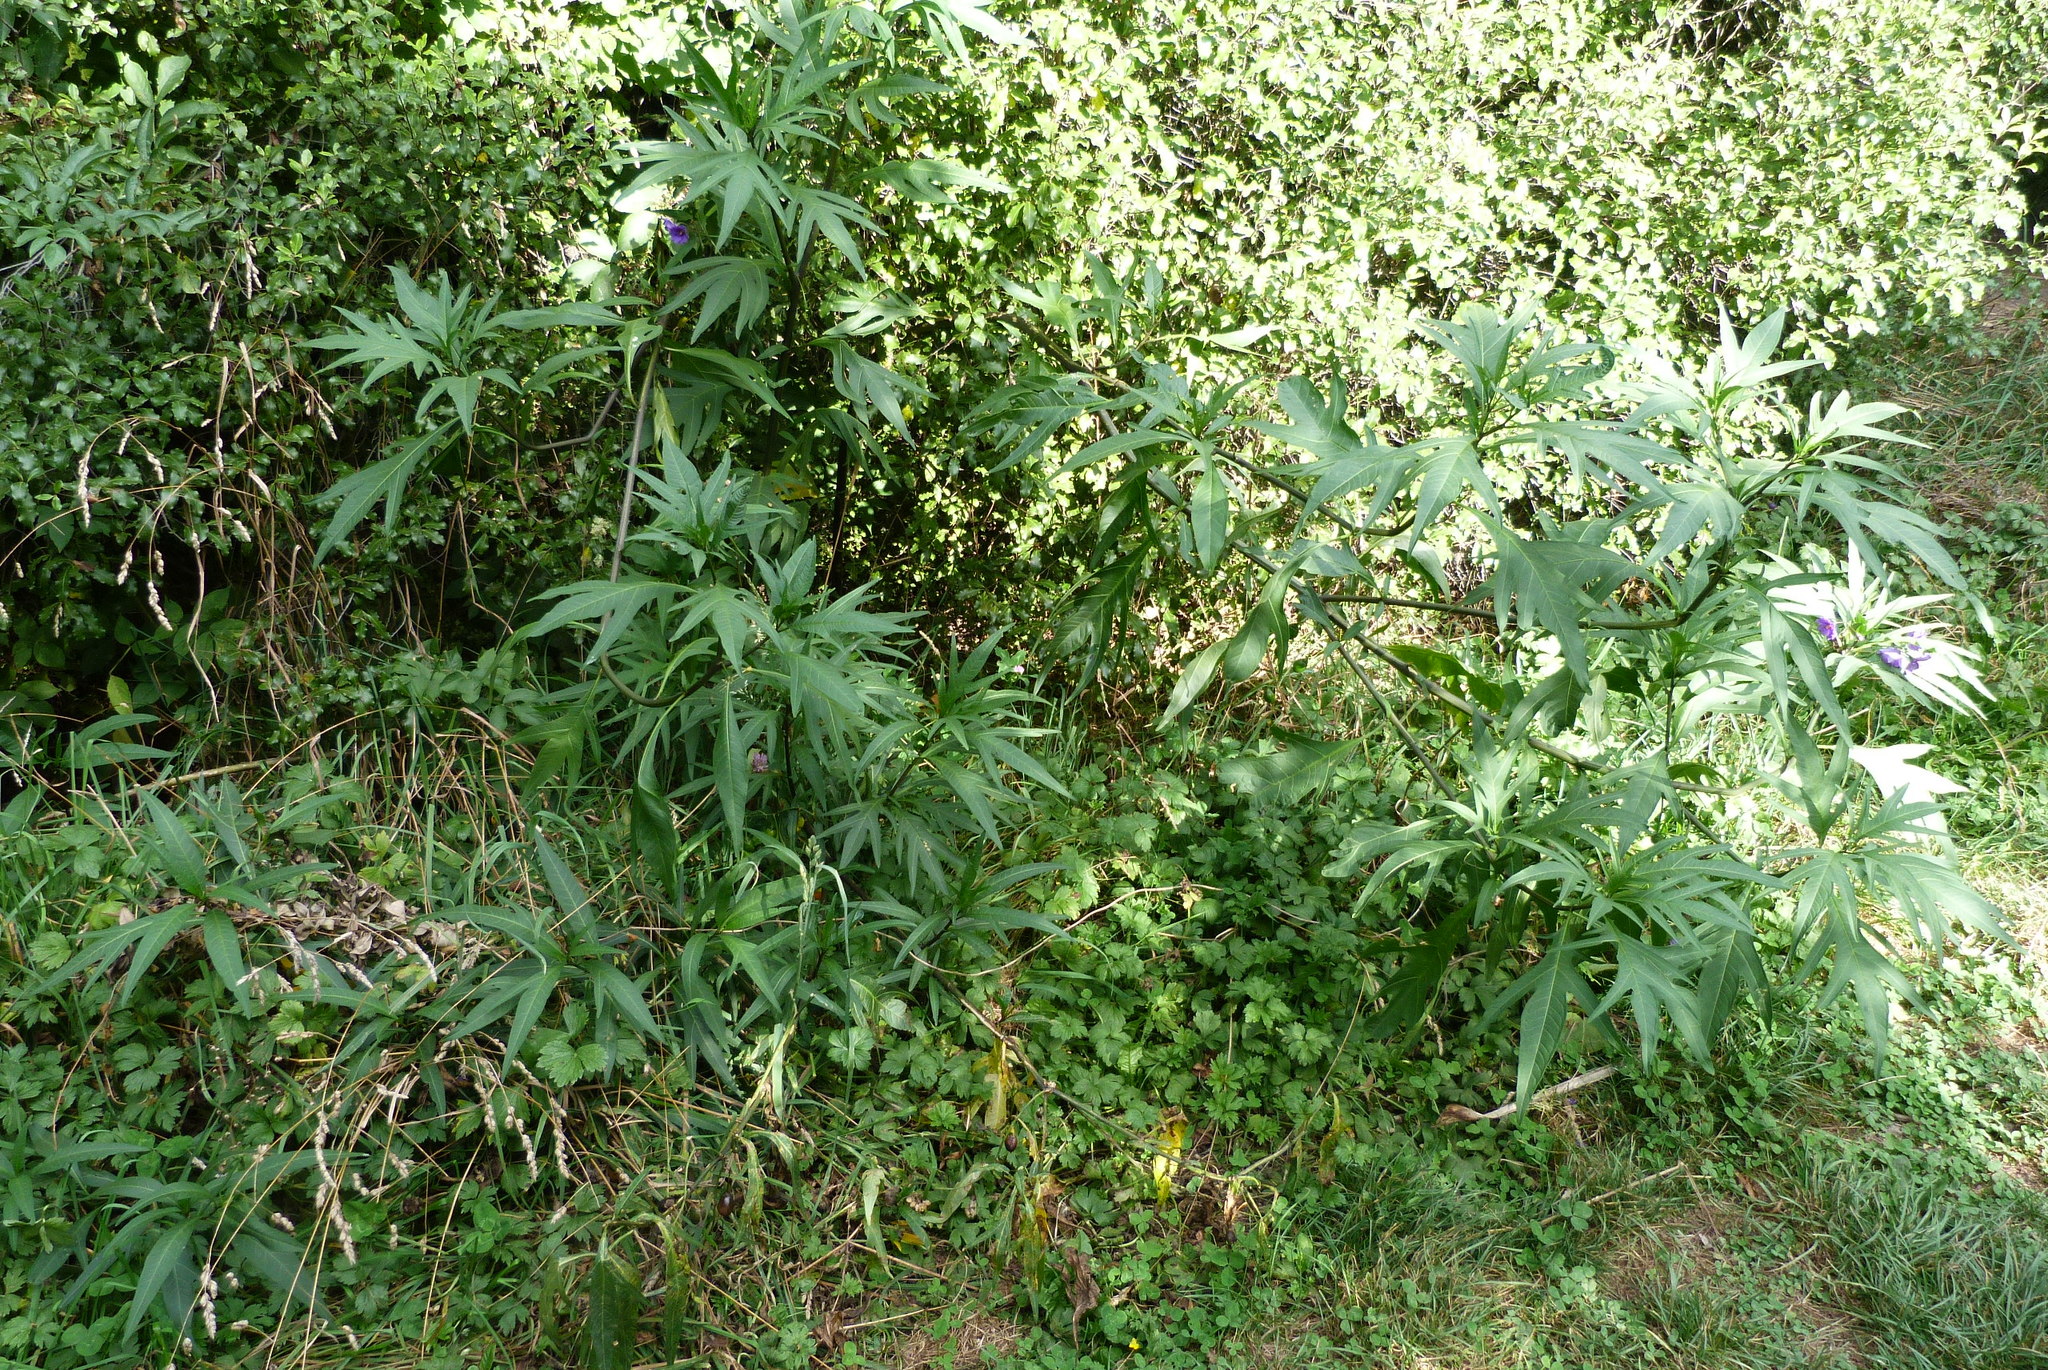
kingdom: Plantae
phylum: Tracheophyta
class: Magnoliopsida
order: Solanales
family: Solanaceae
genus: Solanum
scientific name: Solanum laciniatum
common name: Kangaroo-apple
